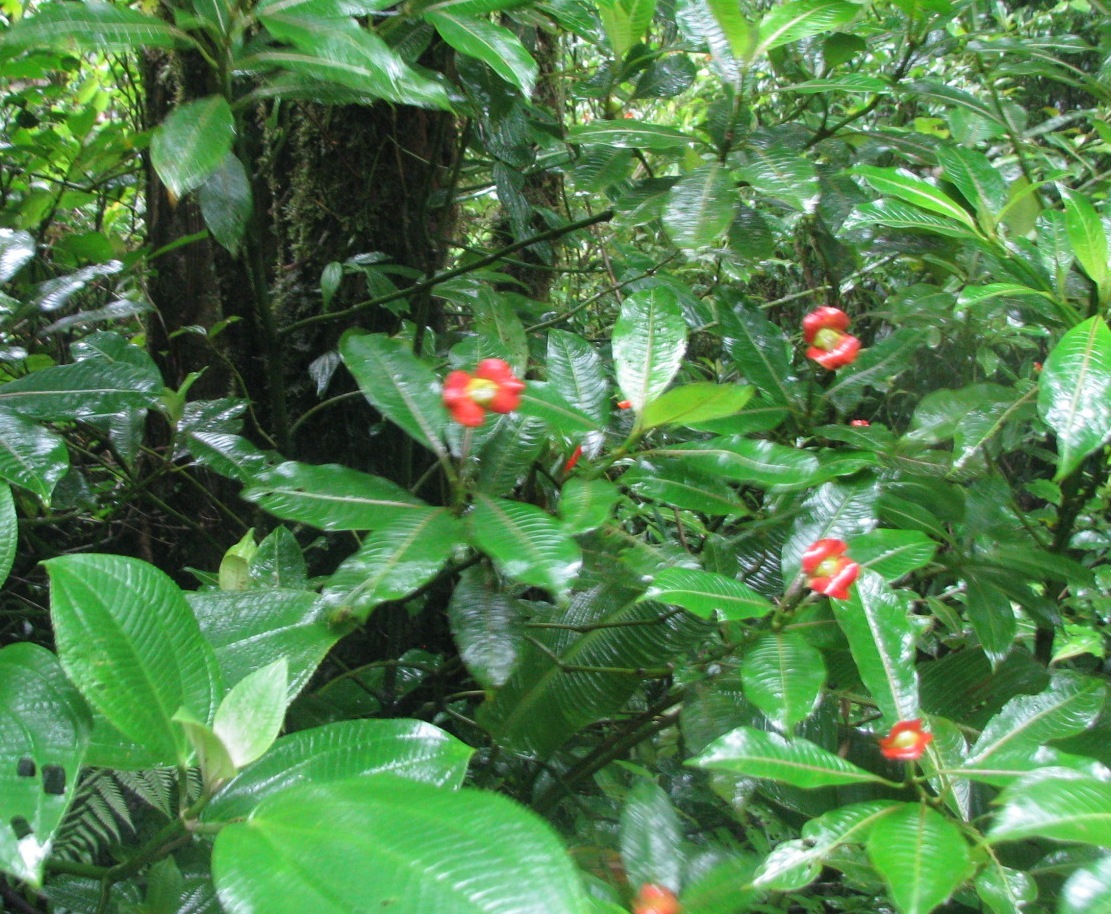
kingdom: Plantae
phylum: Tracheophyta
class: Magnoliopsida
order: Gentianales
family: Rubiaceae
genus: Palicourea
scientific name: Palicourea elata
